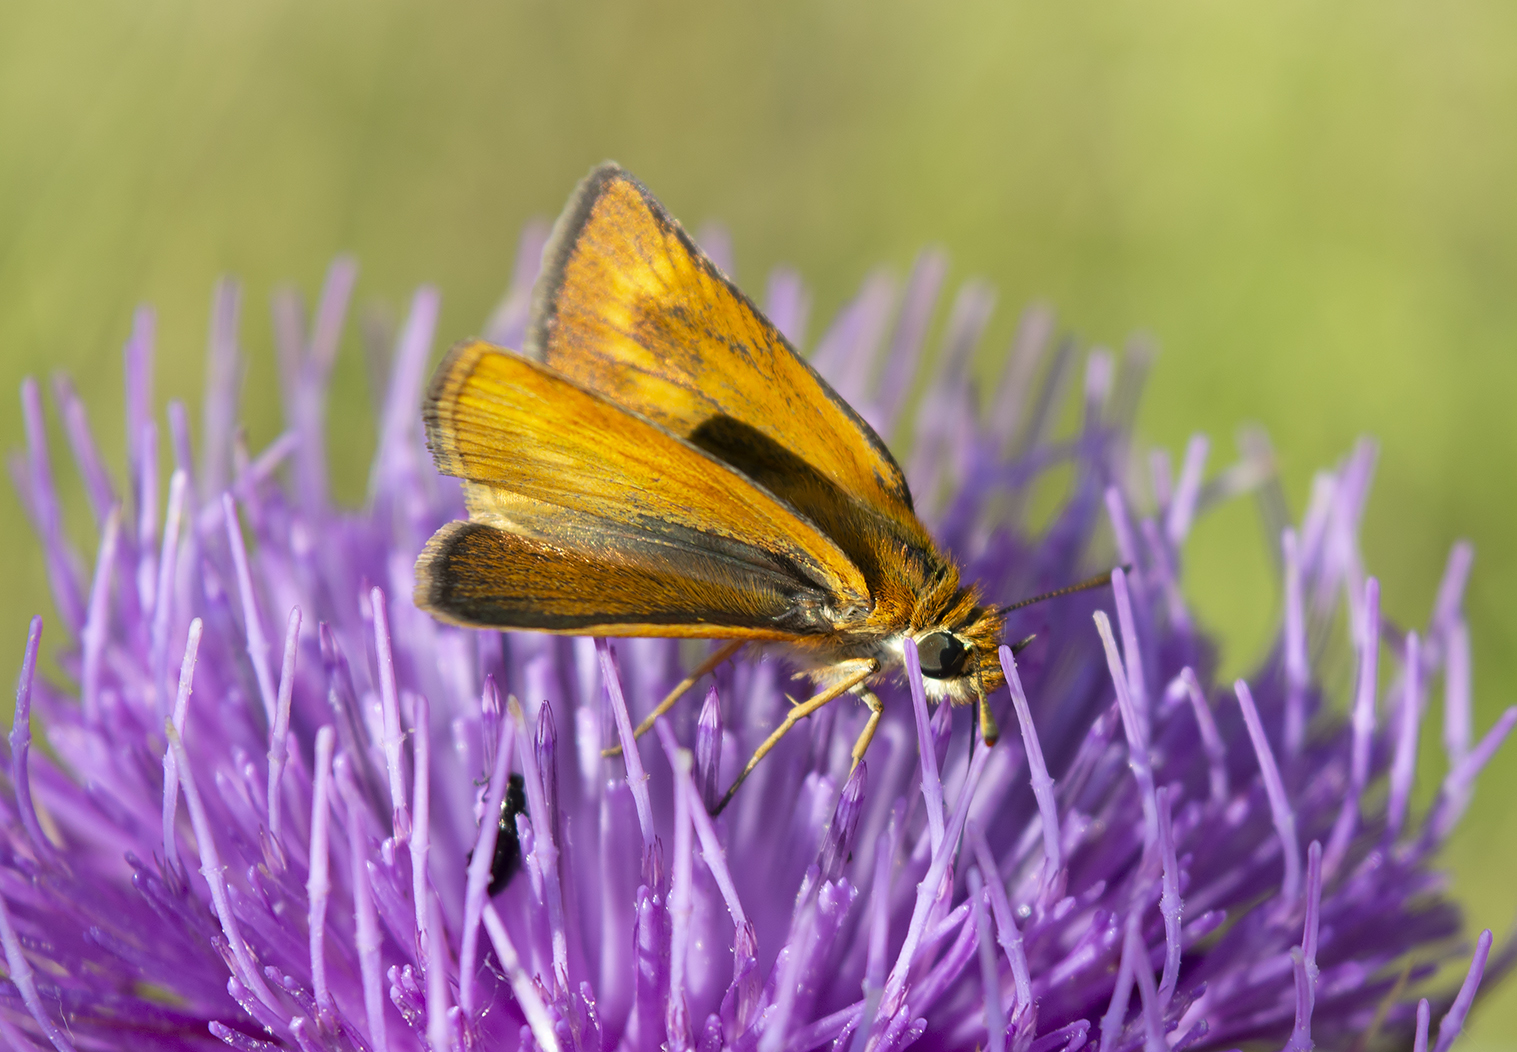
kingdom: Animalia
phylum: Arthropoda
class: Insecta
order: Lepidoptera
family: Hesperiidae
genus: Thymelicus
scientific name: Thymelicus acteon
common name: Lulworth skipper
